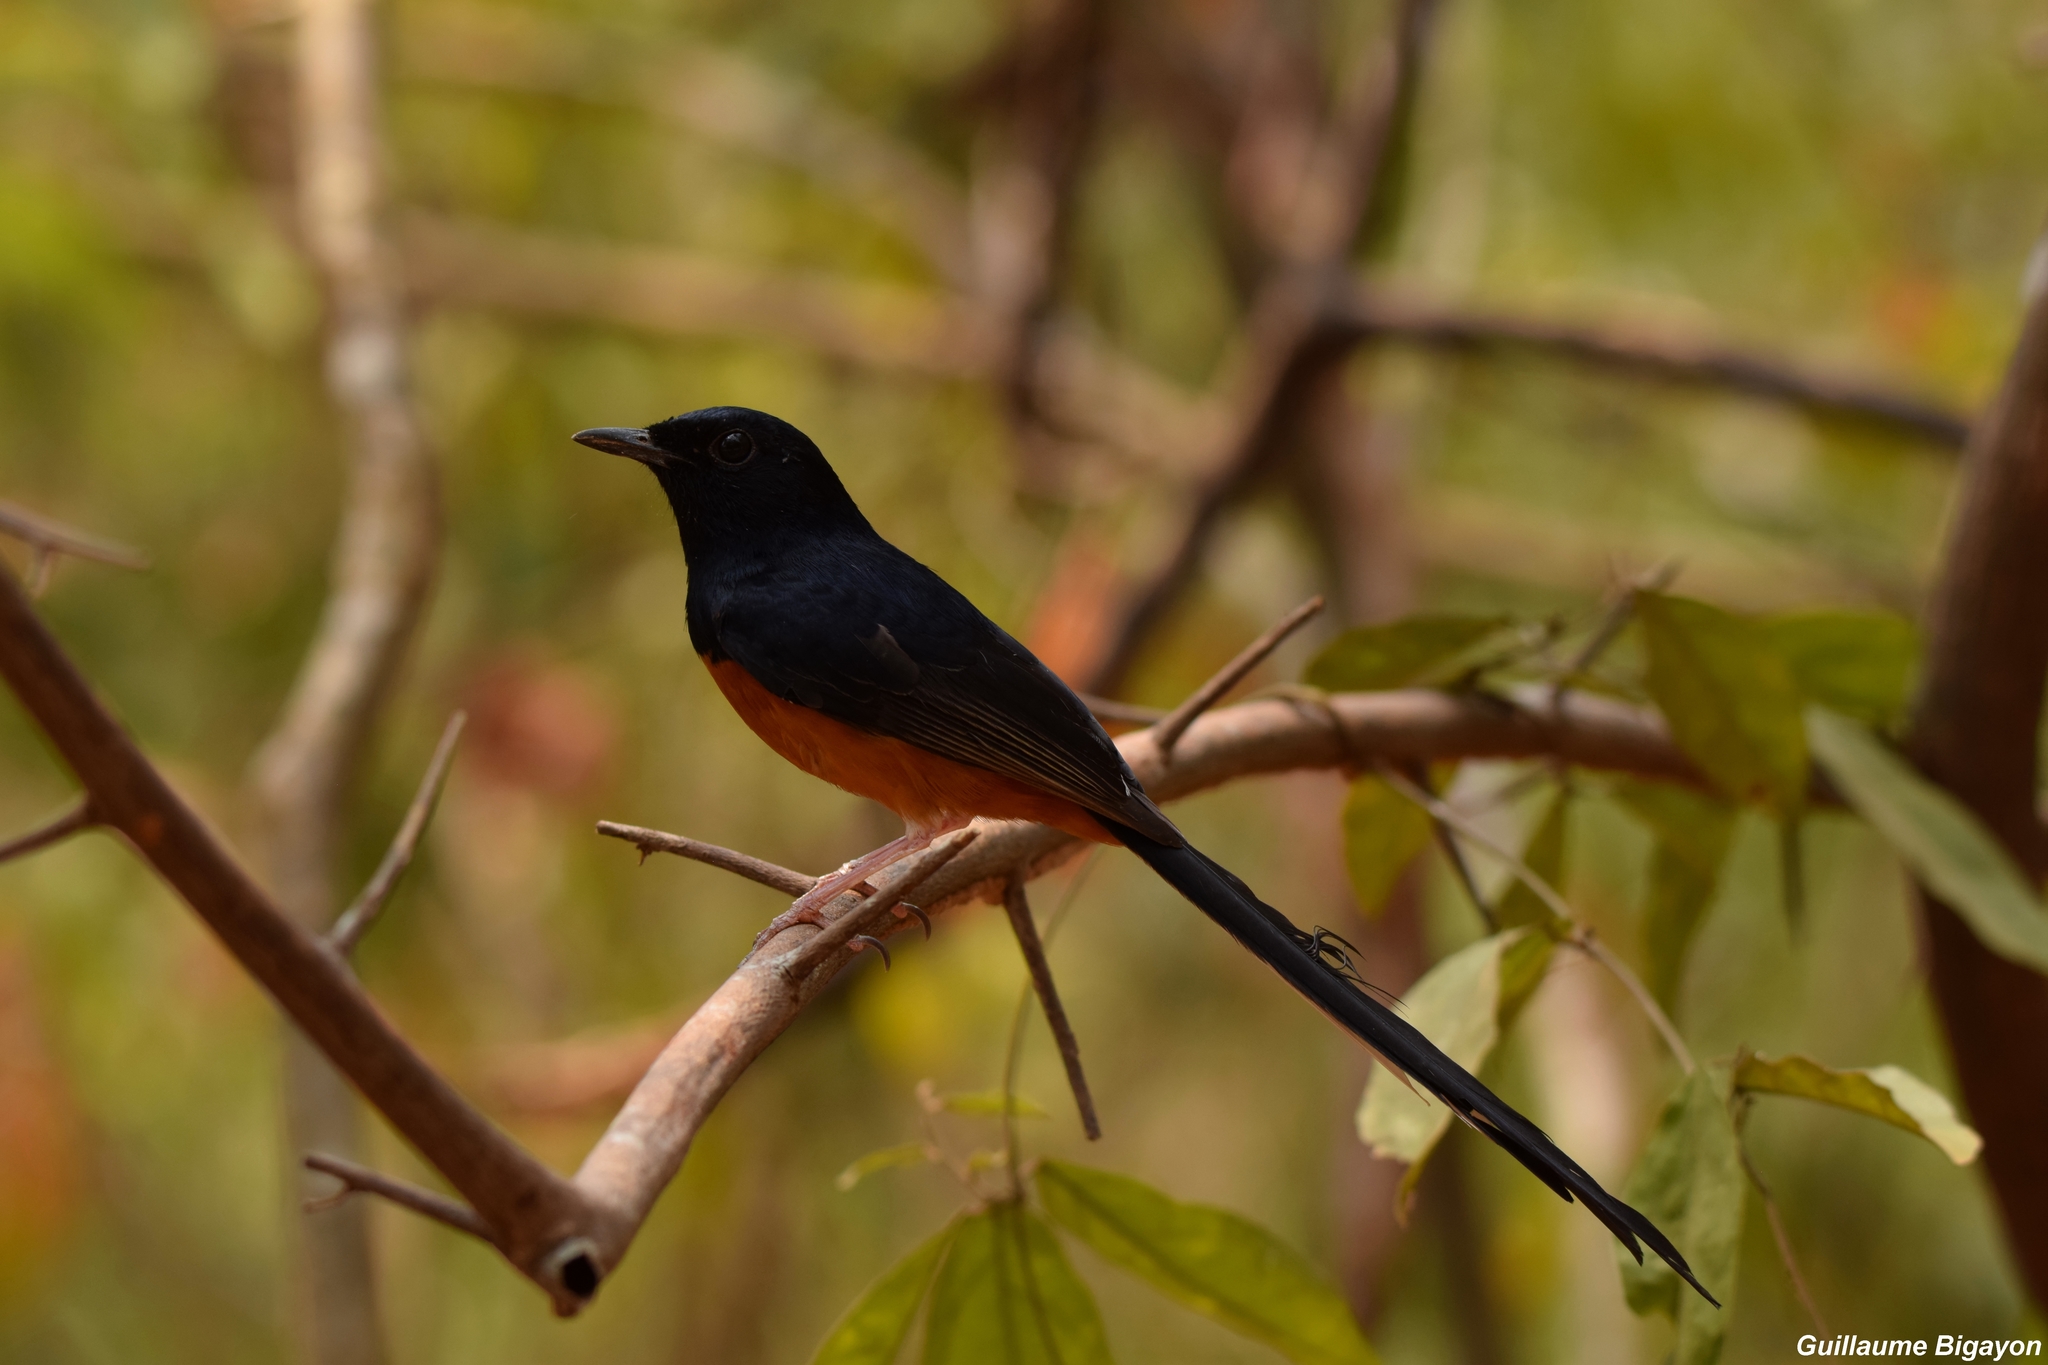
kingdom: Animalia
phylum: Chordata
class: Aves
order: Passeriformes
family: Muscicapidae
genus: Copsychus
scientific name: Copsychus malabaricus
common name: White-rumped shama
